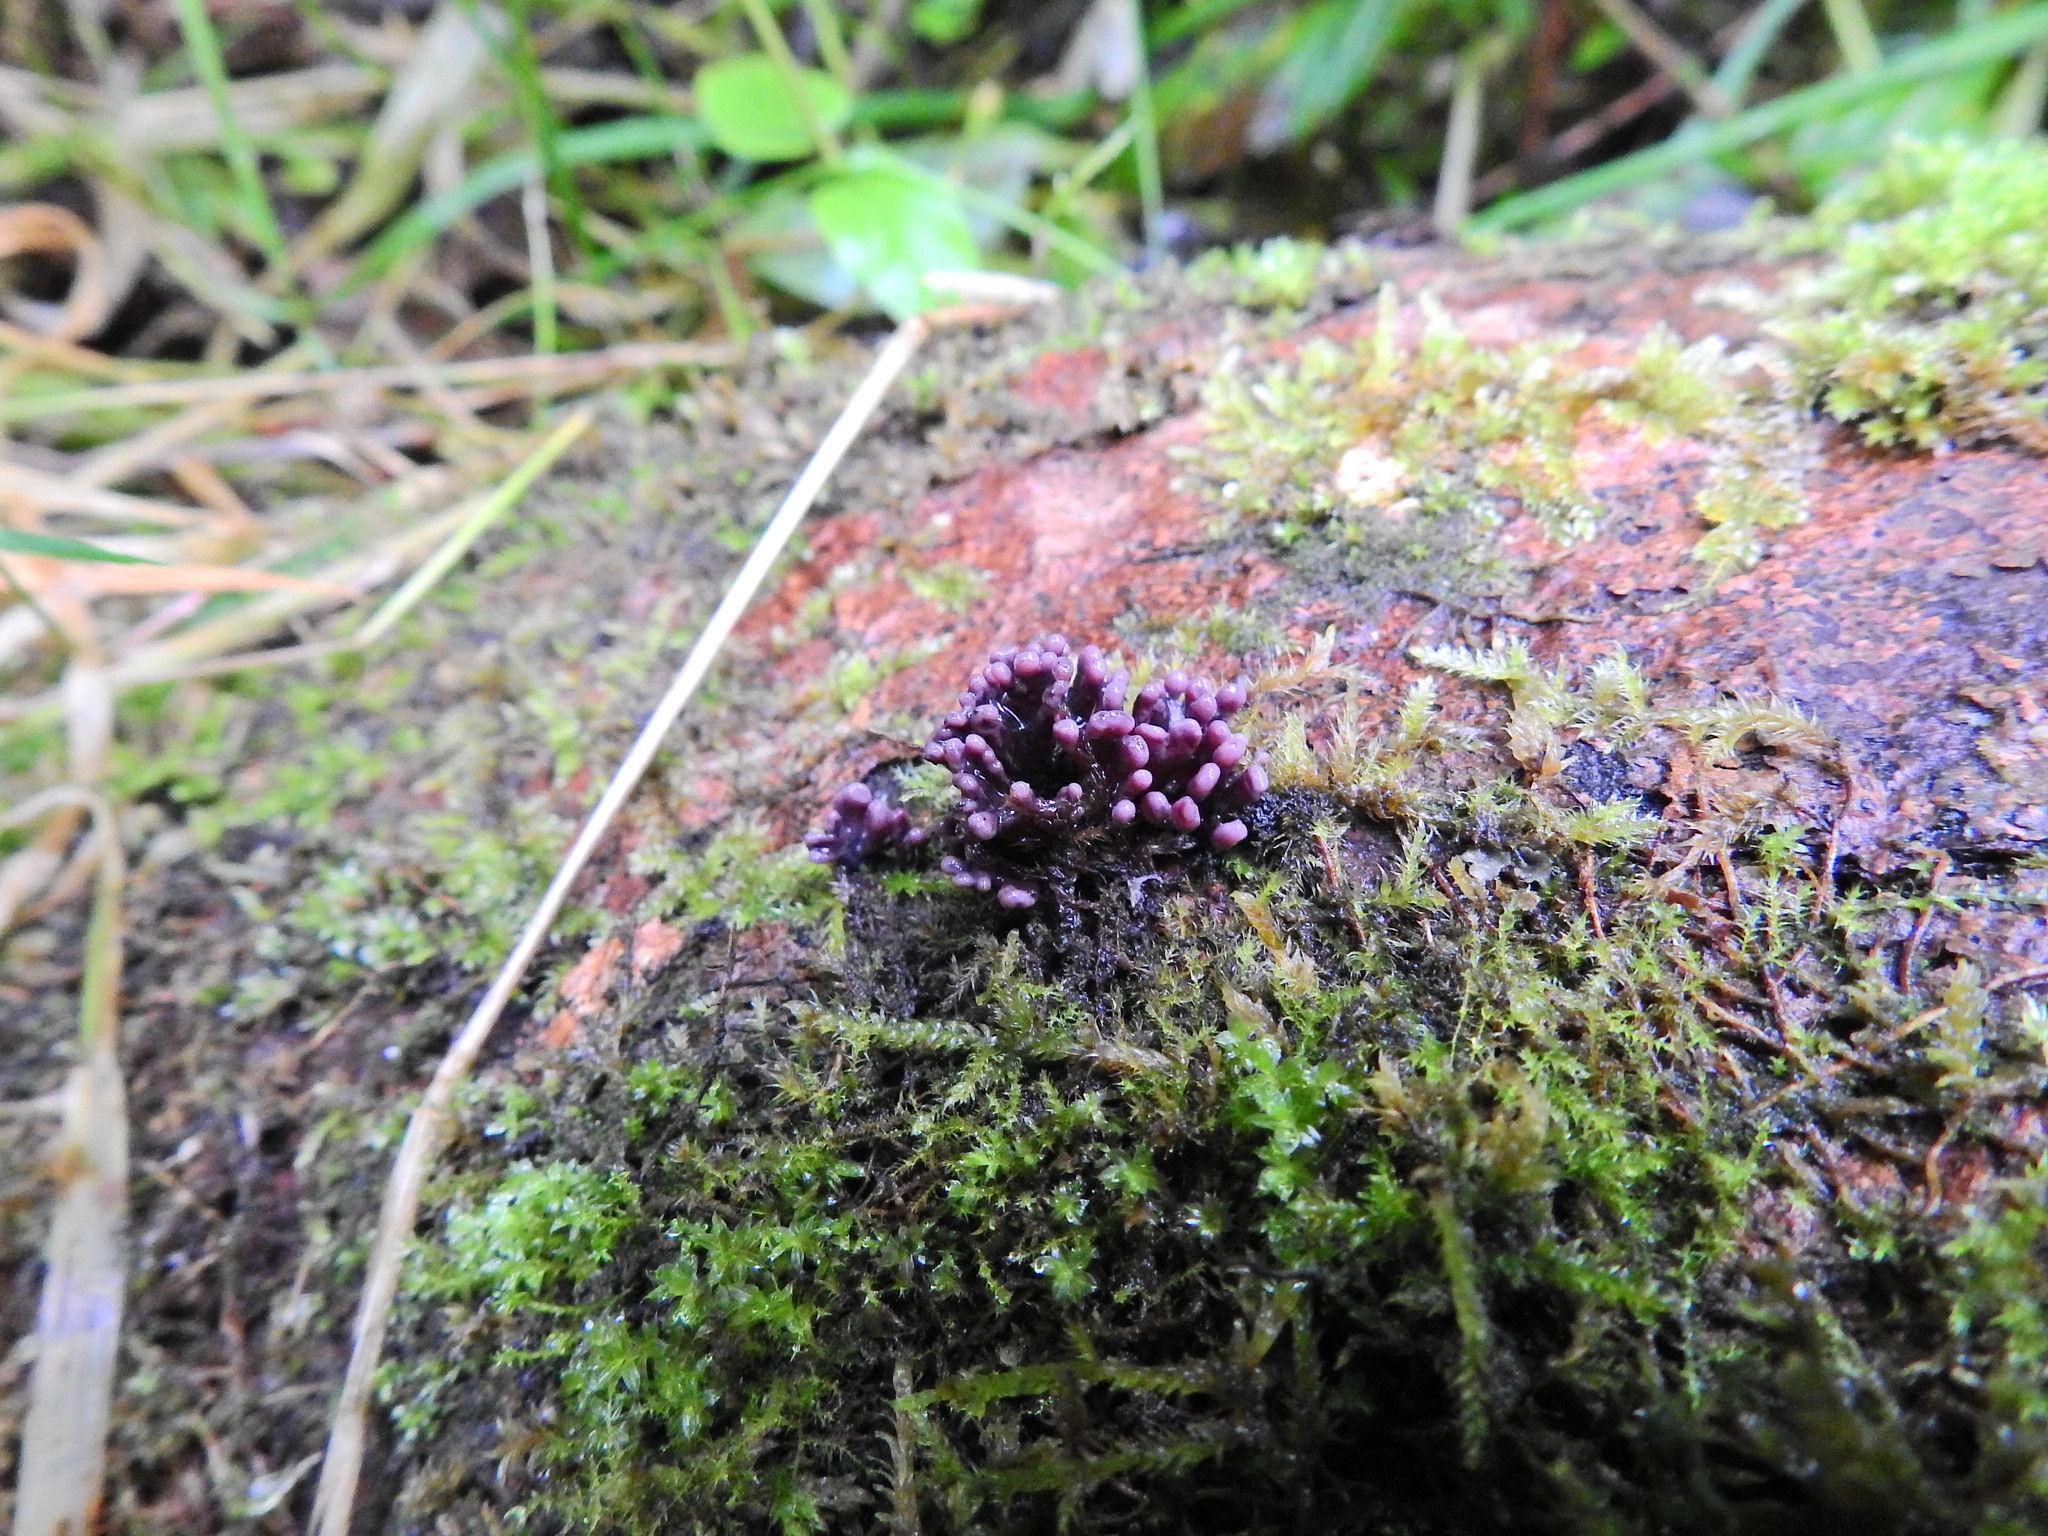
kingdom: Fungi
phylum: Ascomycota
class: Leotiomycetes
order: Helotiales
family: Gelatinodiscaceae
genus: Ascocoryne
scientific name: Ascocoryne sarcoides
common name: Purple jellydisc
